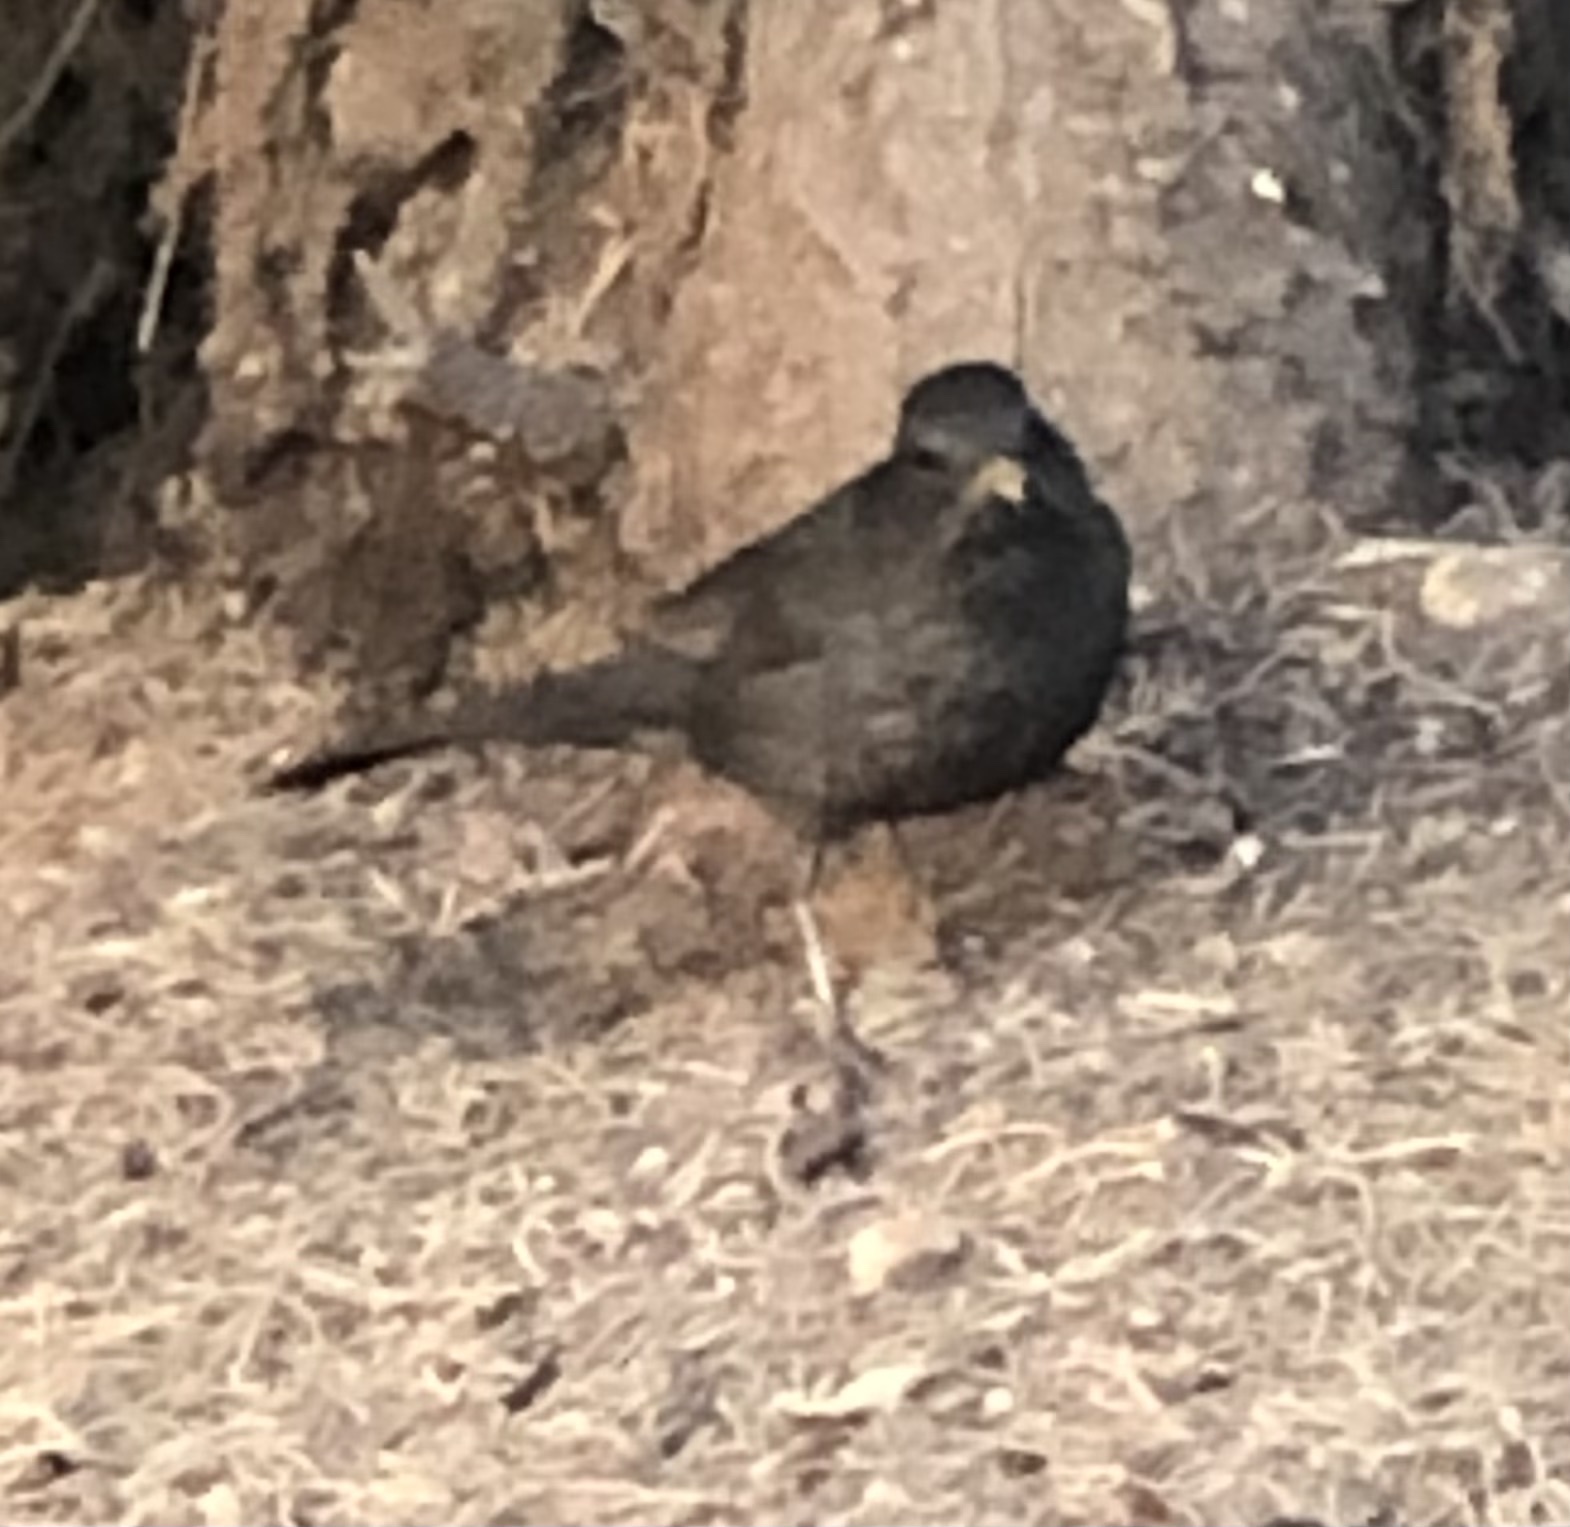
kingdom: Animalia
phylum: Chordata
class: Aves
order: Passeriformes
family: Turdidae
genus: Turdus
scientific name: Turdus merula
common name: Common blackbird
